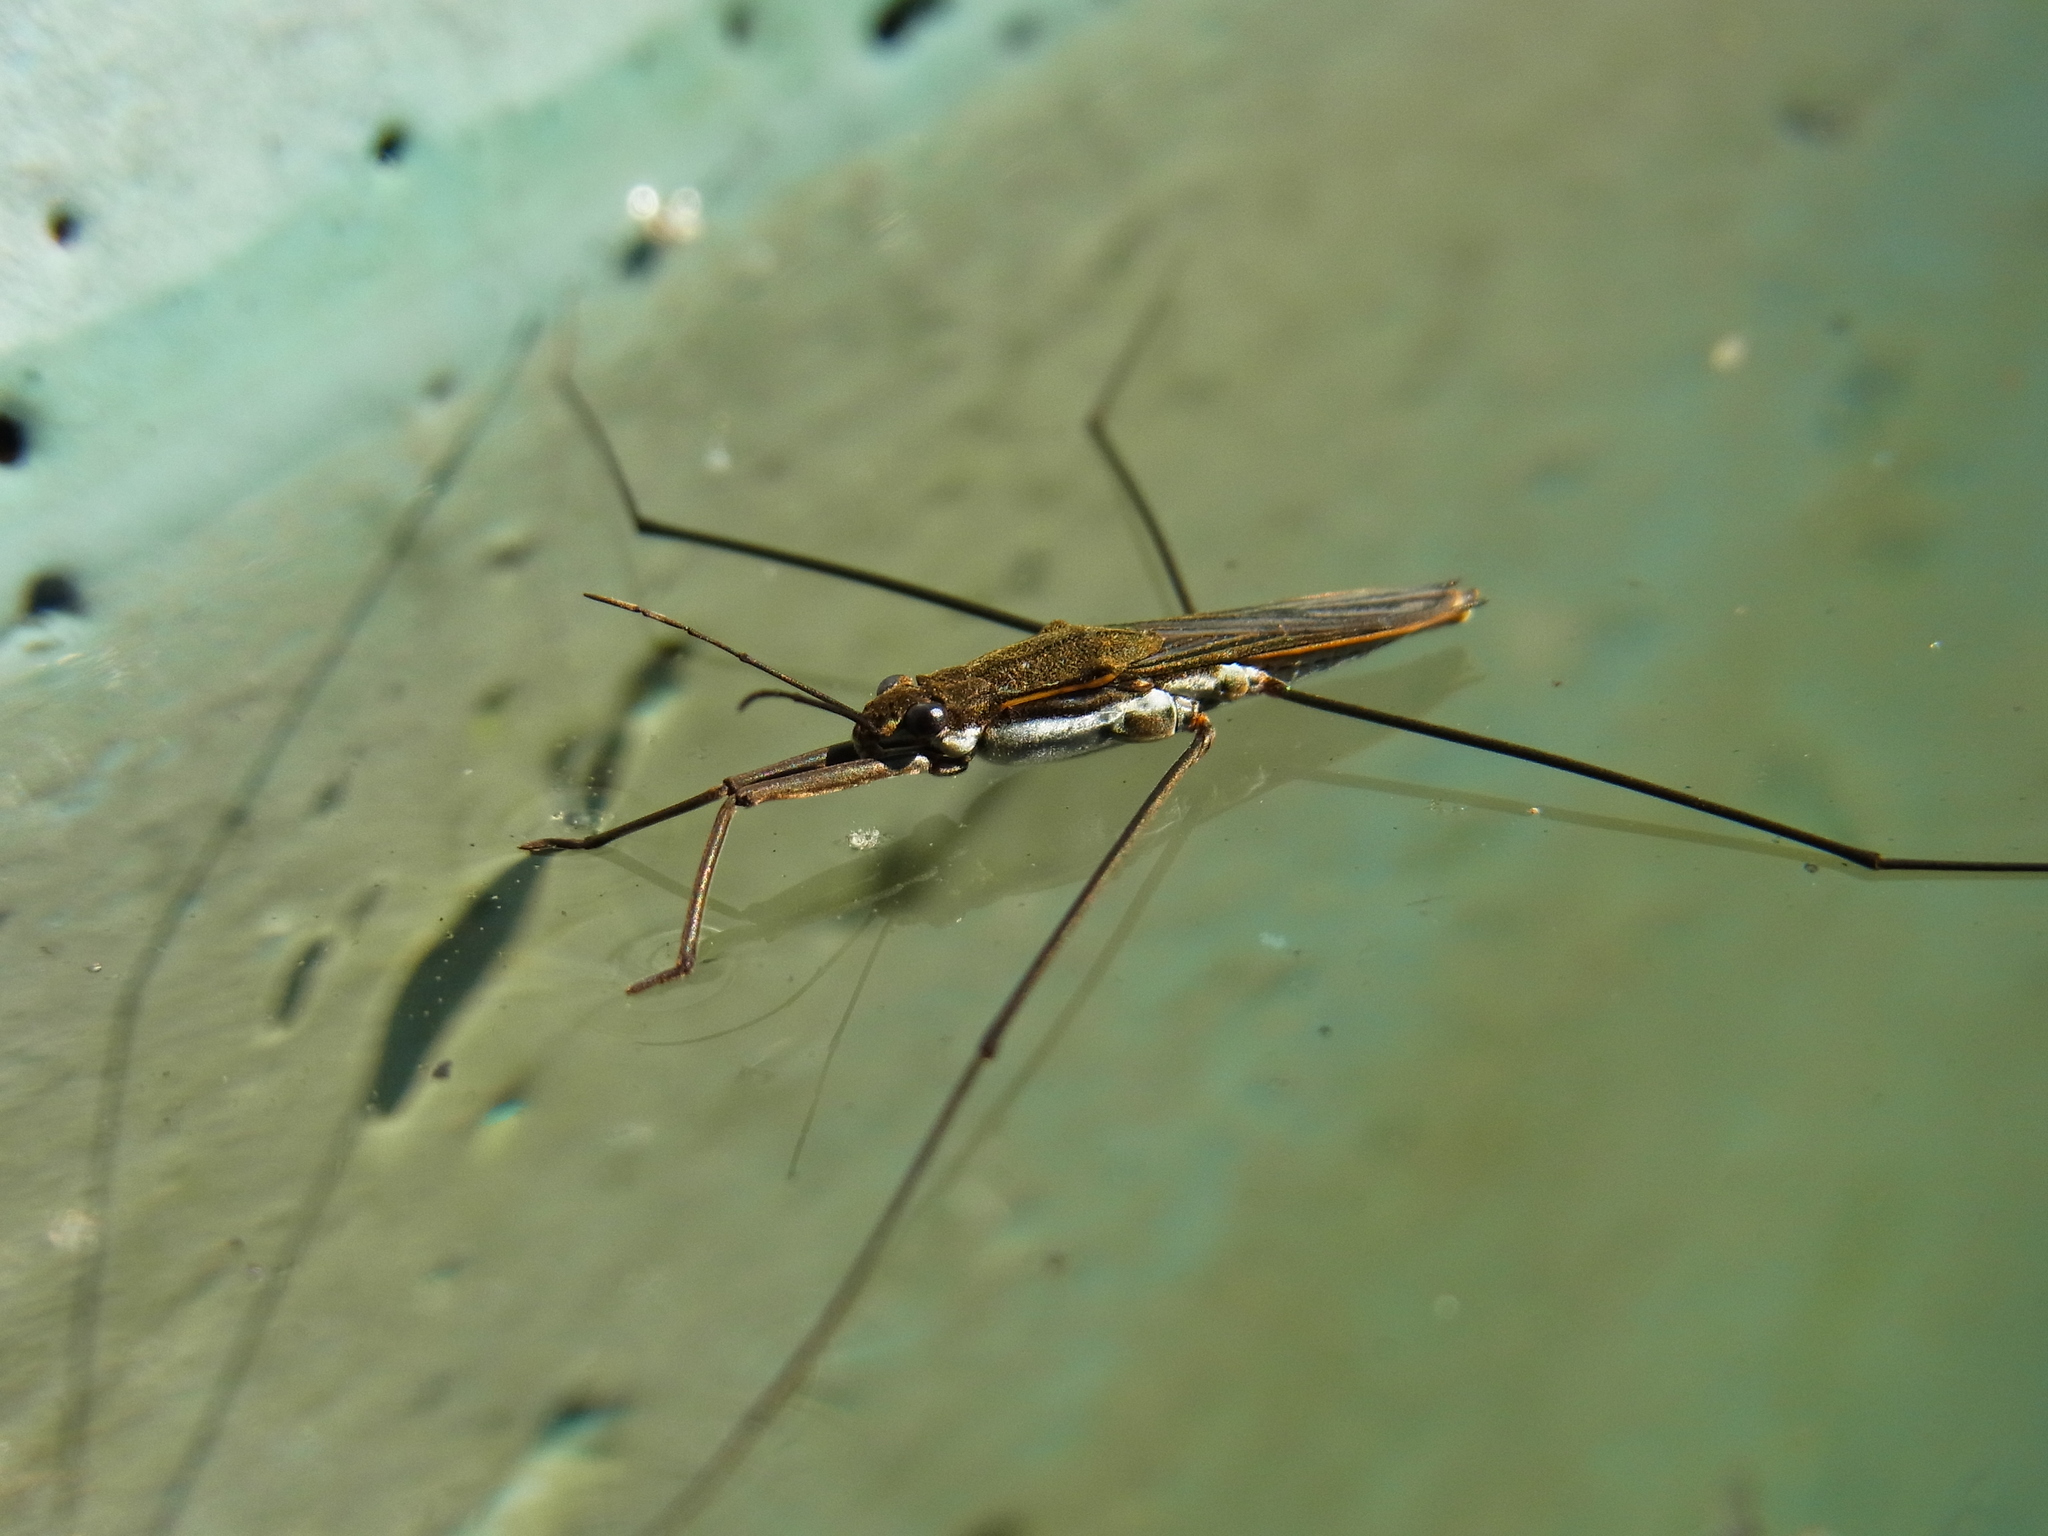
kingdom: Animalia
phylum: Arthropoda
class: Insecta
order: Hemiptera
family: Gerridae
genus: Aquarius
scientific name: Aquarius paludum
